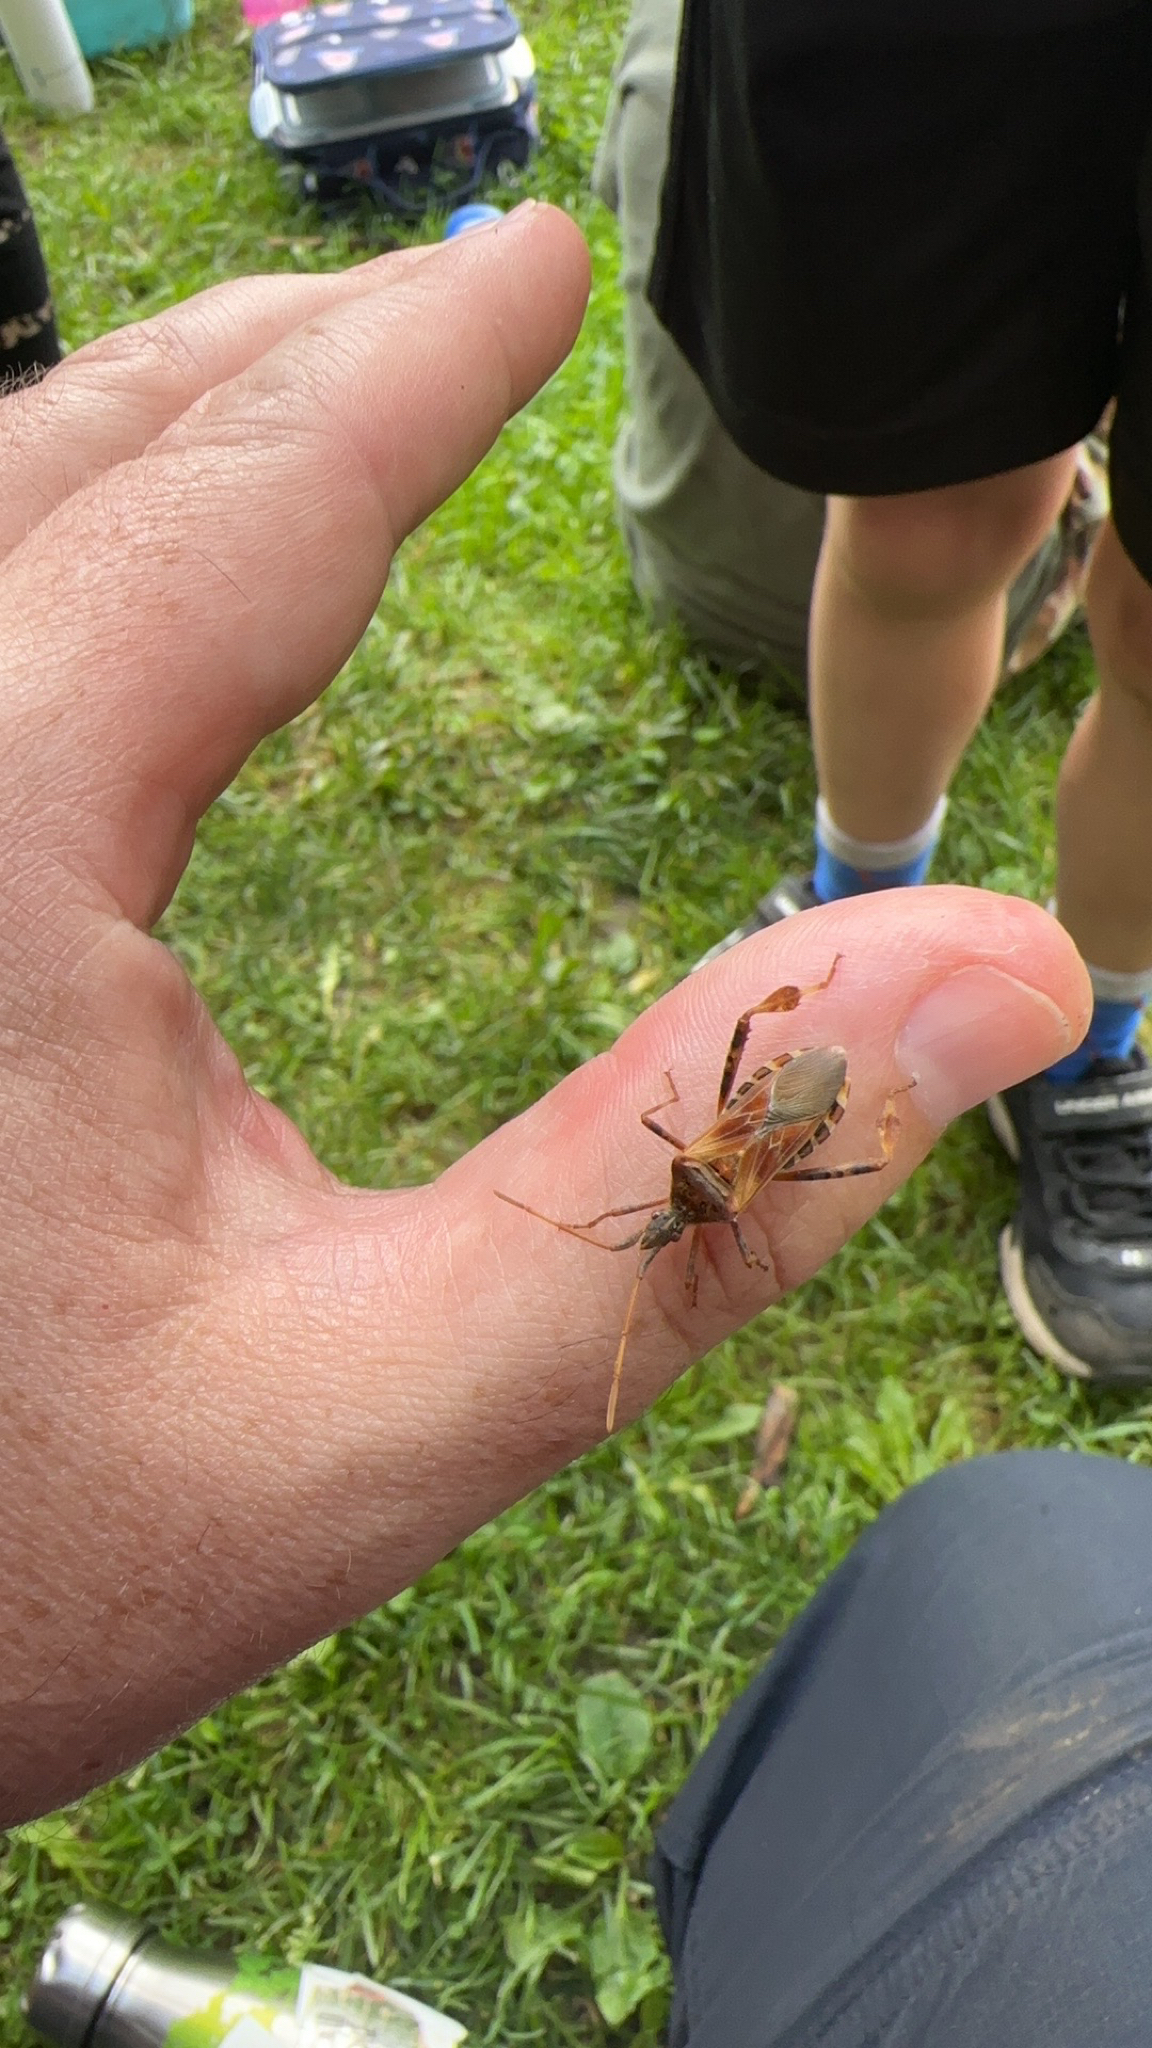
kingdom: Animalia
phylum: Arthropoda
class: Insecta
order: Hemiptera
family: Coreidae
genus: Leptoglossus
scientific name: Leptoglossus occidentalis
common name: Western conifer-seed bug
